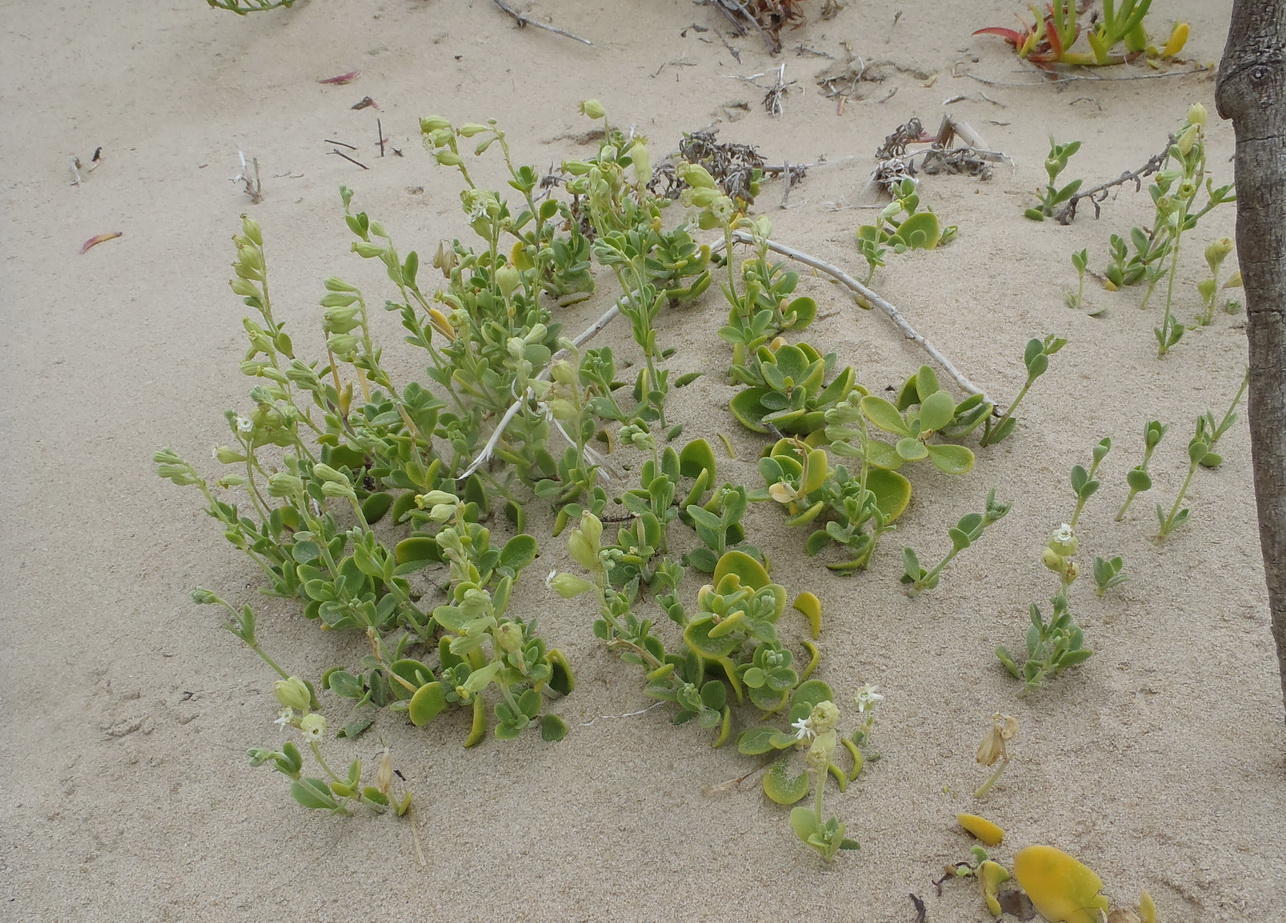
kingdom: Plantae
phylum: Tracheophyta
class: Magnoliopsida
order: Caryophyllales
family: Caryophyllaceae
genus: Silene
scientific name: Silene crassifolia
